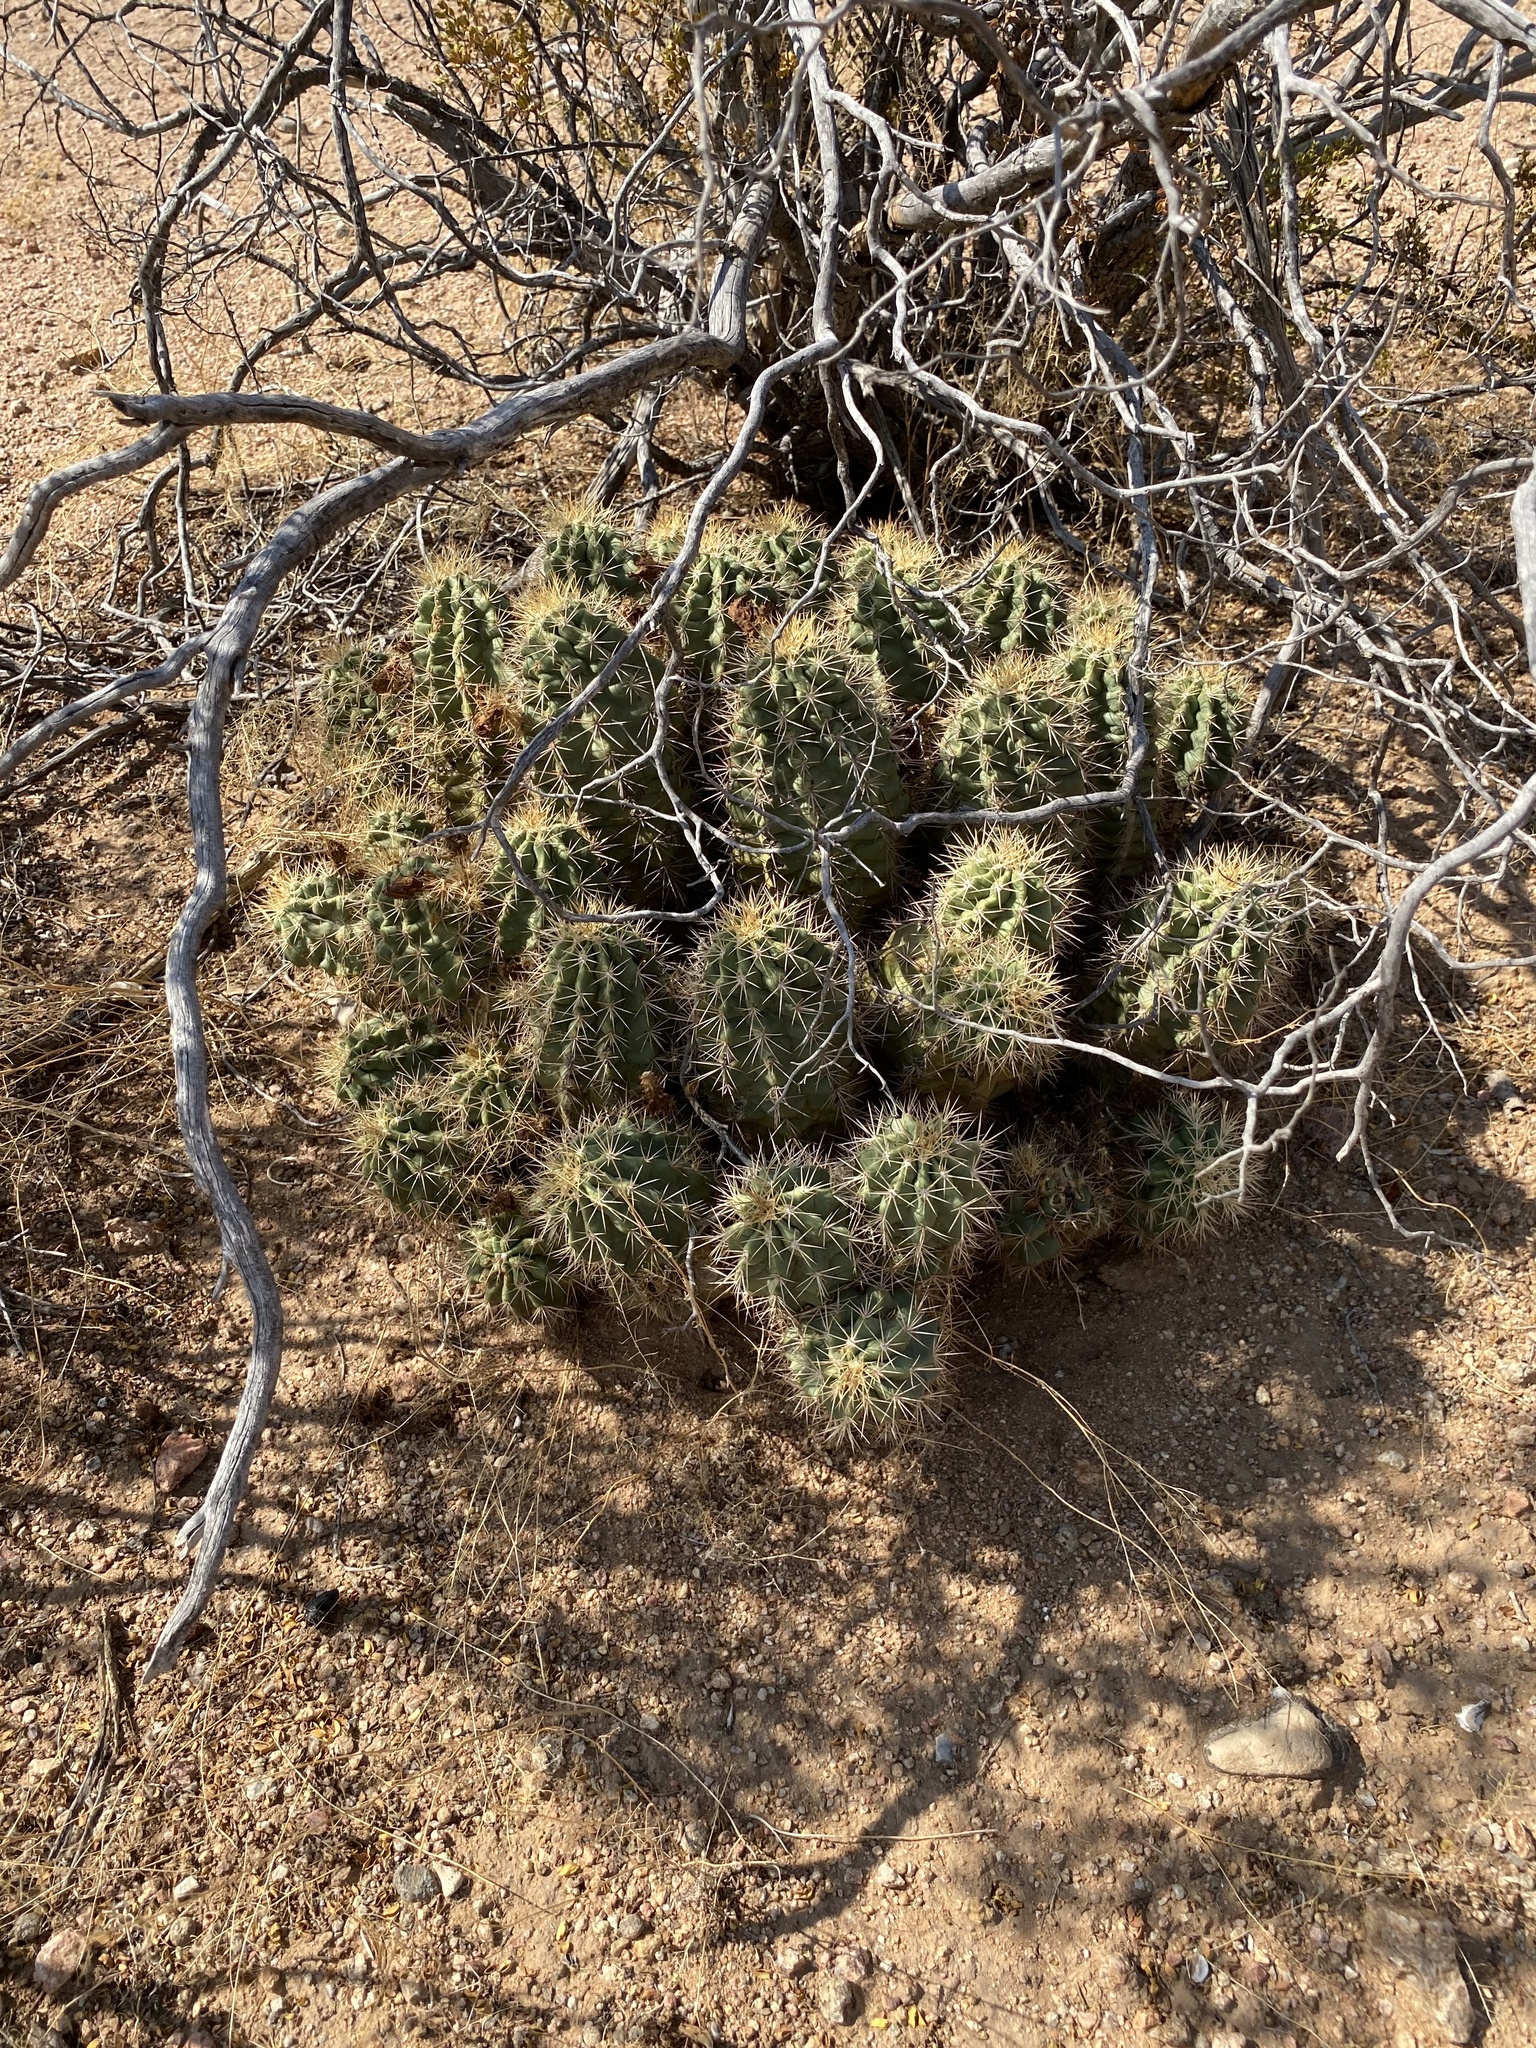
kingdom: Plantae
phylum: Tracheophyta
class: Magnoliopsida
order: Caryophyllales
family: Cactaceae
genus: Echinocereus
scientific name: Echinocereus coccineus
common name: Scarlet hedgehog cactus
